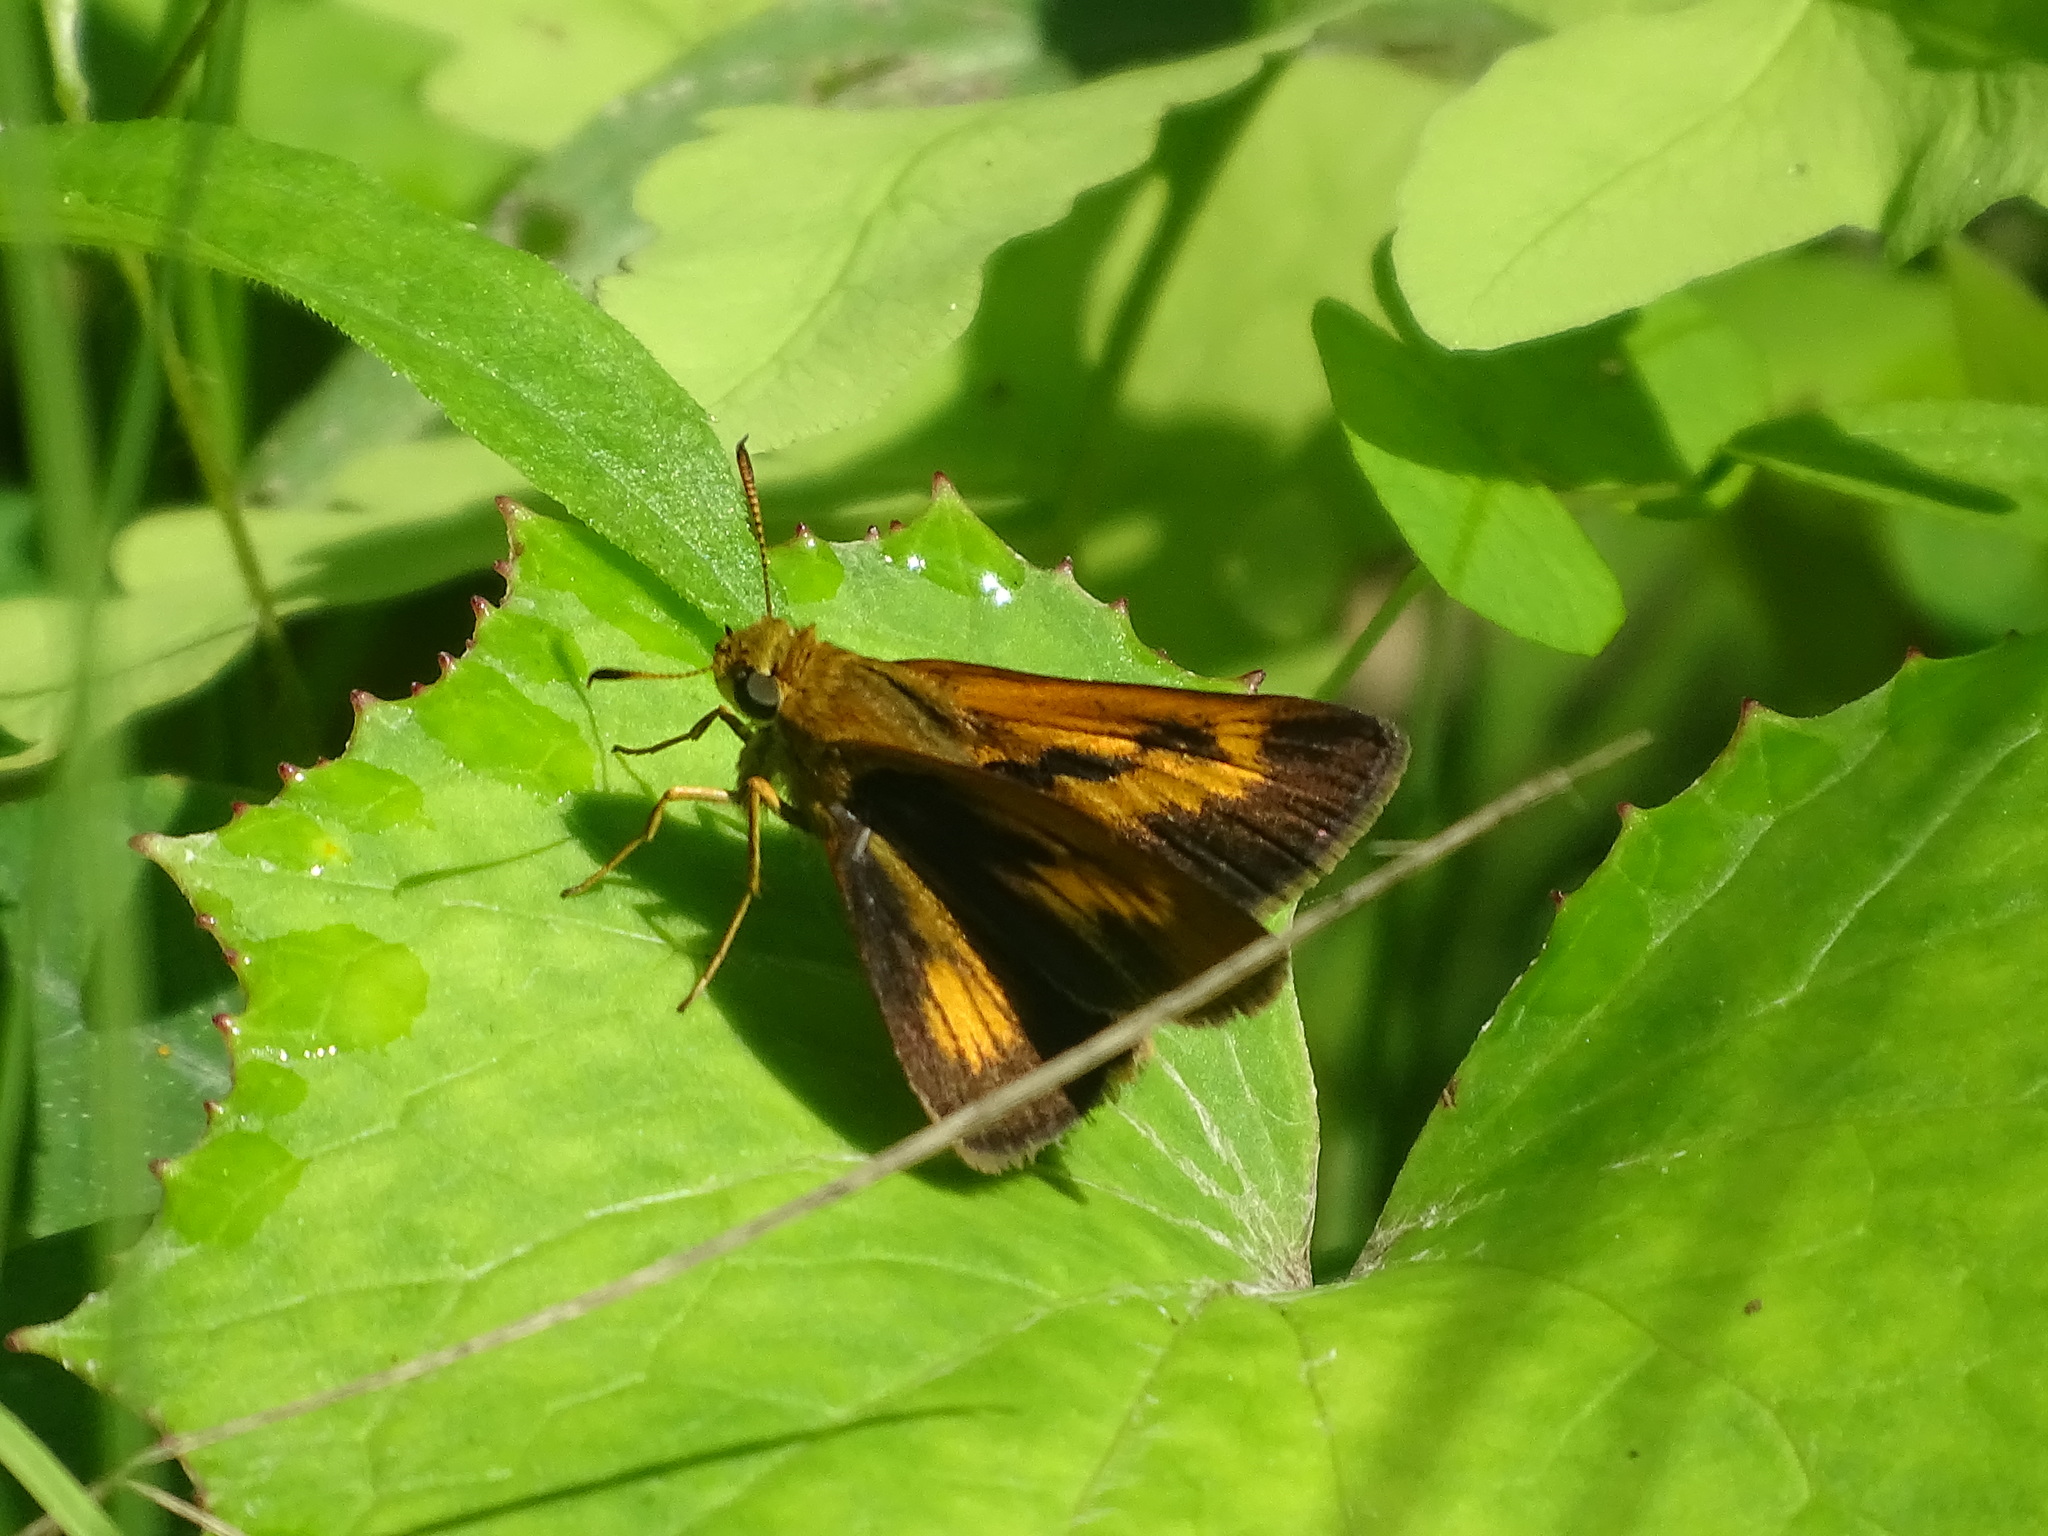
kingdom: Animalia
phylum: Arthropoda
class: Insecta
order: Lepidoptera
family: Hesperiidae
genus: Euphyes
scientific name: Euphyes conspicua
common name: Black dash
